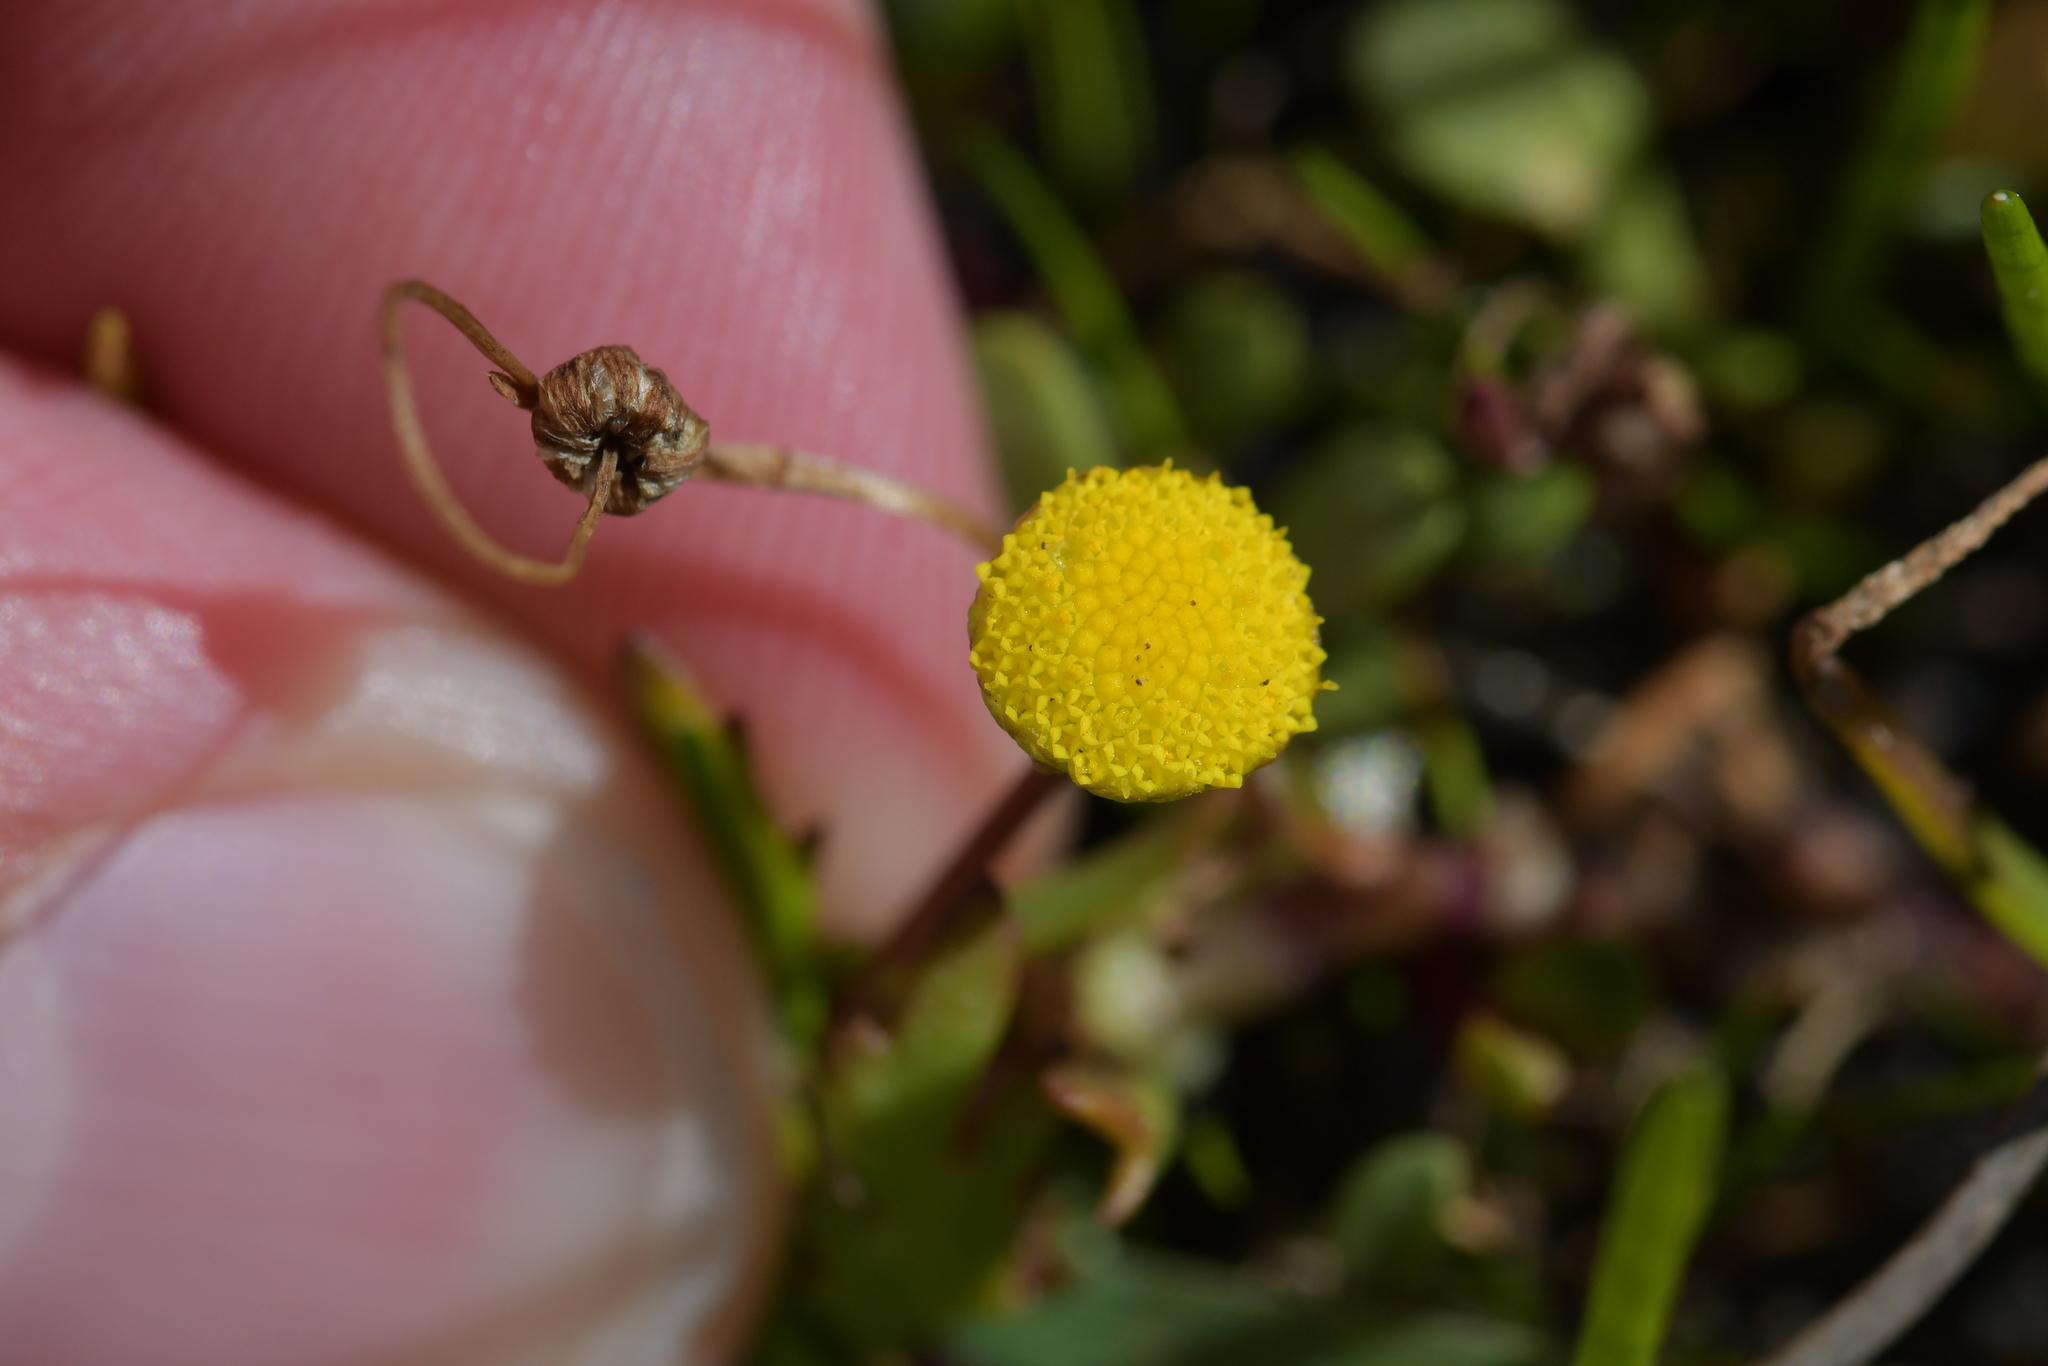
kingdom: Plantae
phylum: Tracheophyta
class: Magnoliopsida
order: Asterales
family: Asteraceae
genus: Cotula
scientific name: Cotula coronopifolia
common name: Buttonweed
